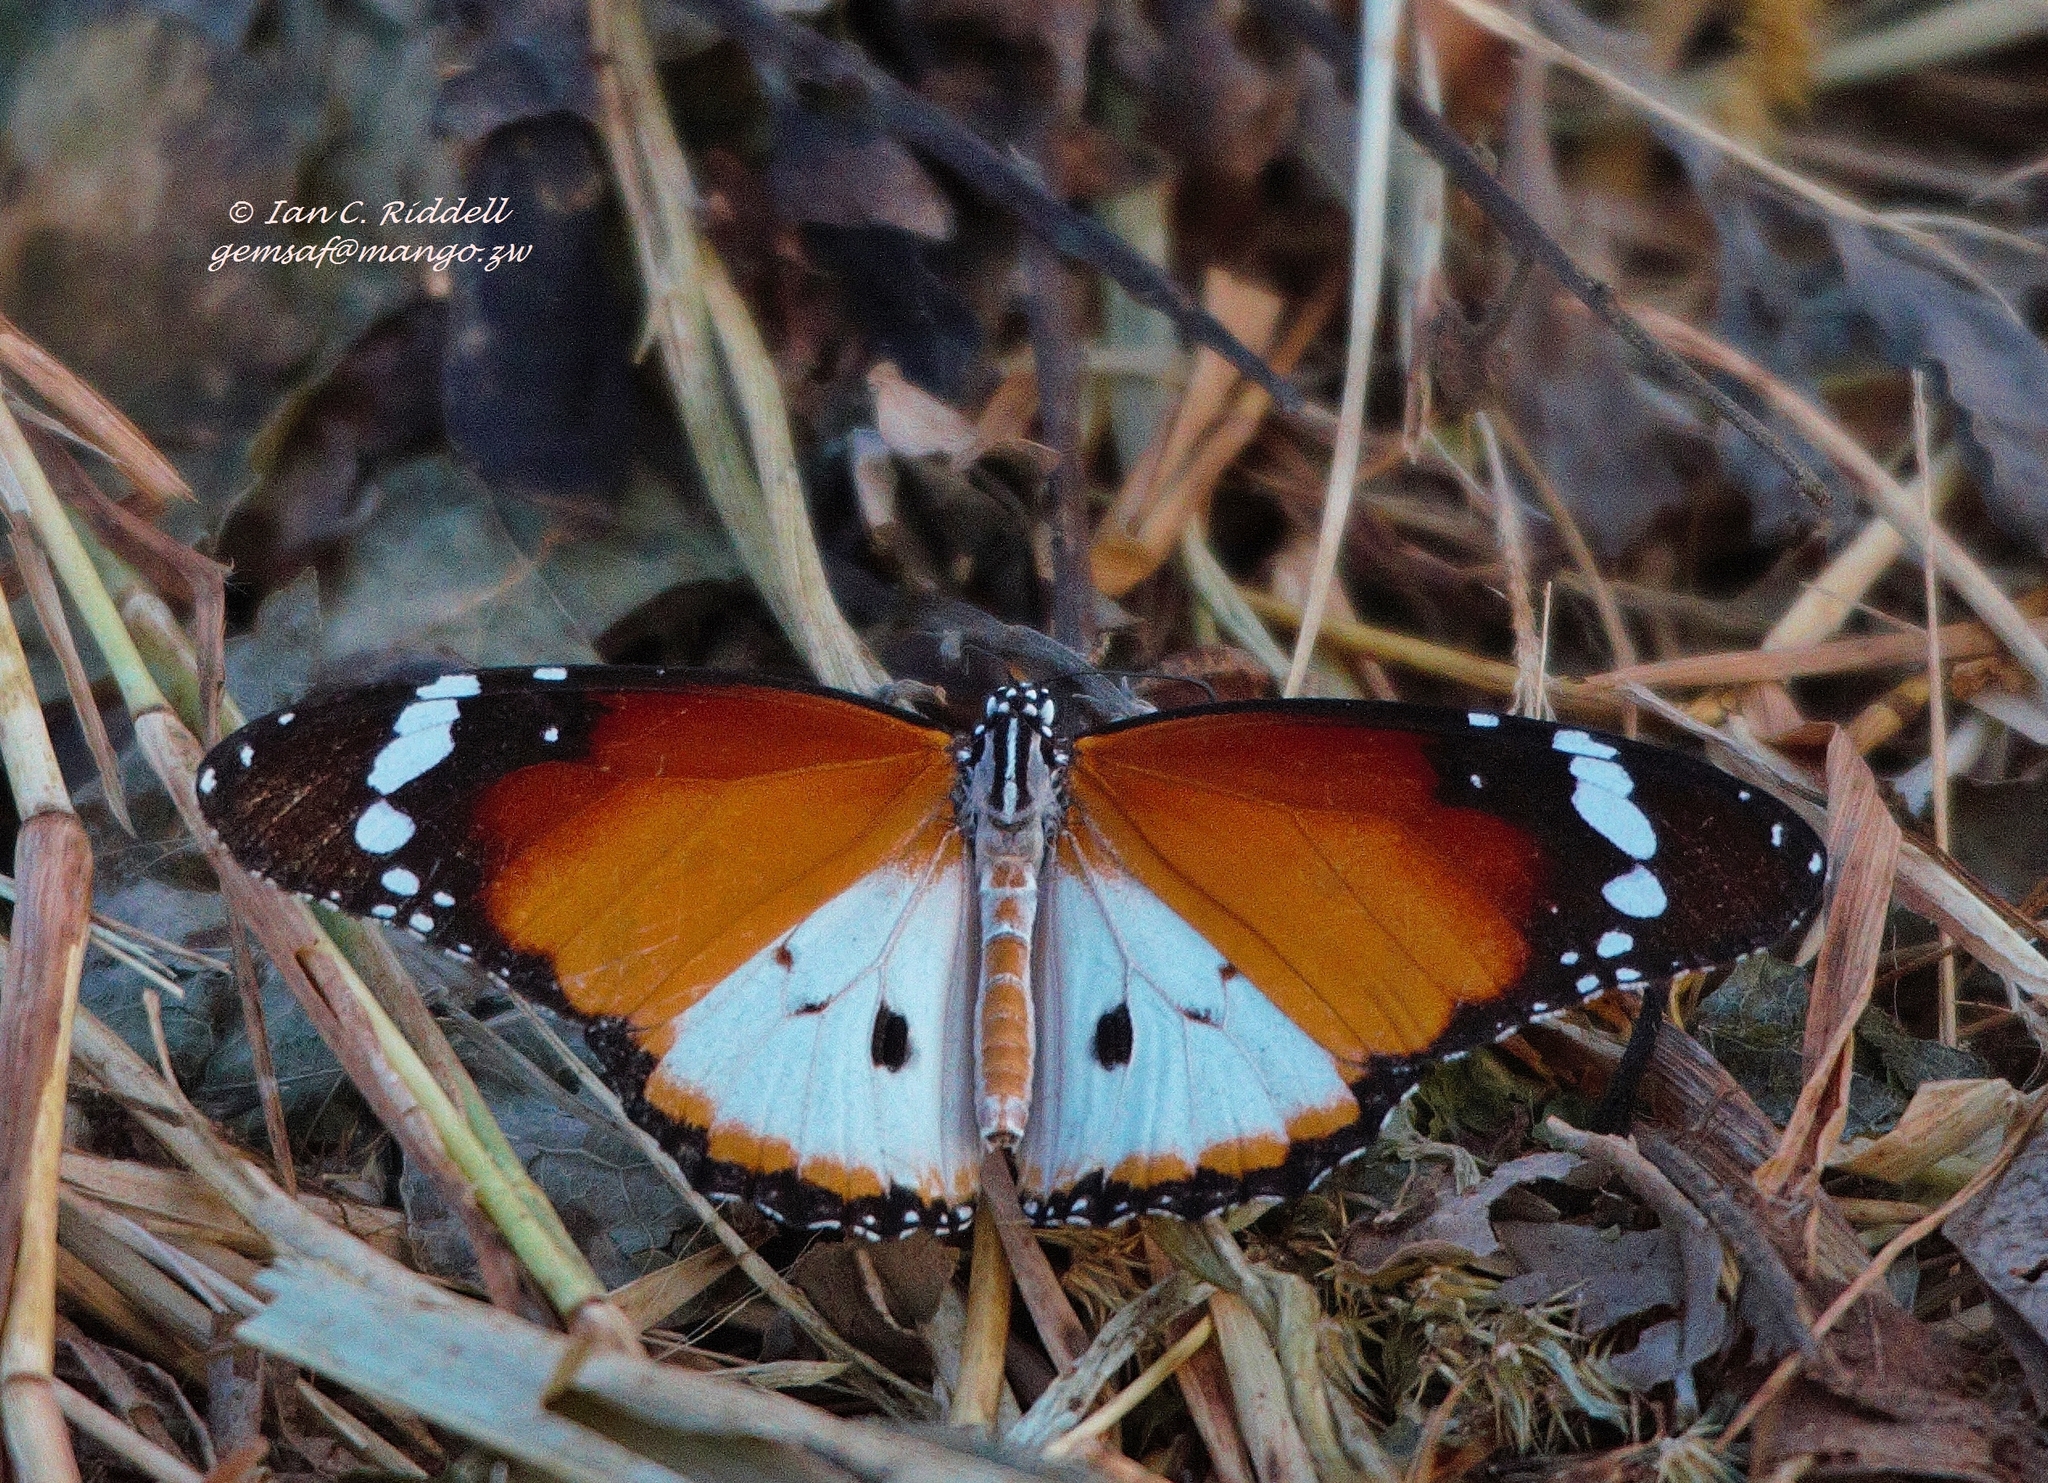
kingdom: Animalia
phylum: Arthropoda
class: Insecta
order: Lepidoptera
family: Nymphalidae
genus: Danaus
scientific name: Danaus chrysippus
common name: Plain tiger
